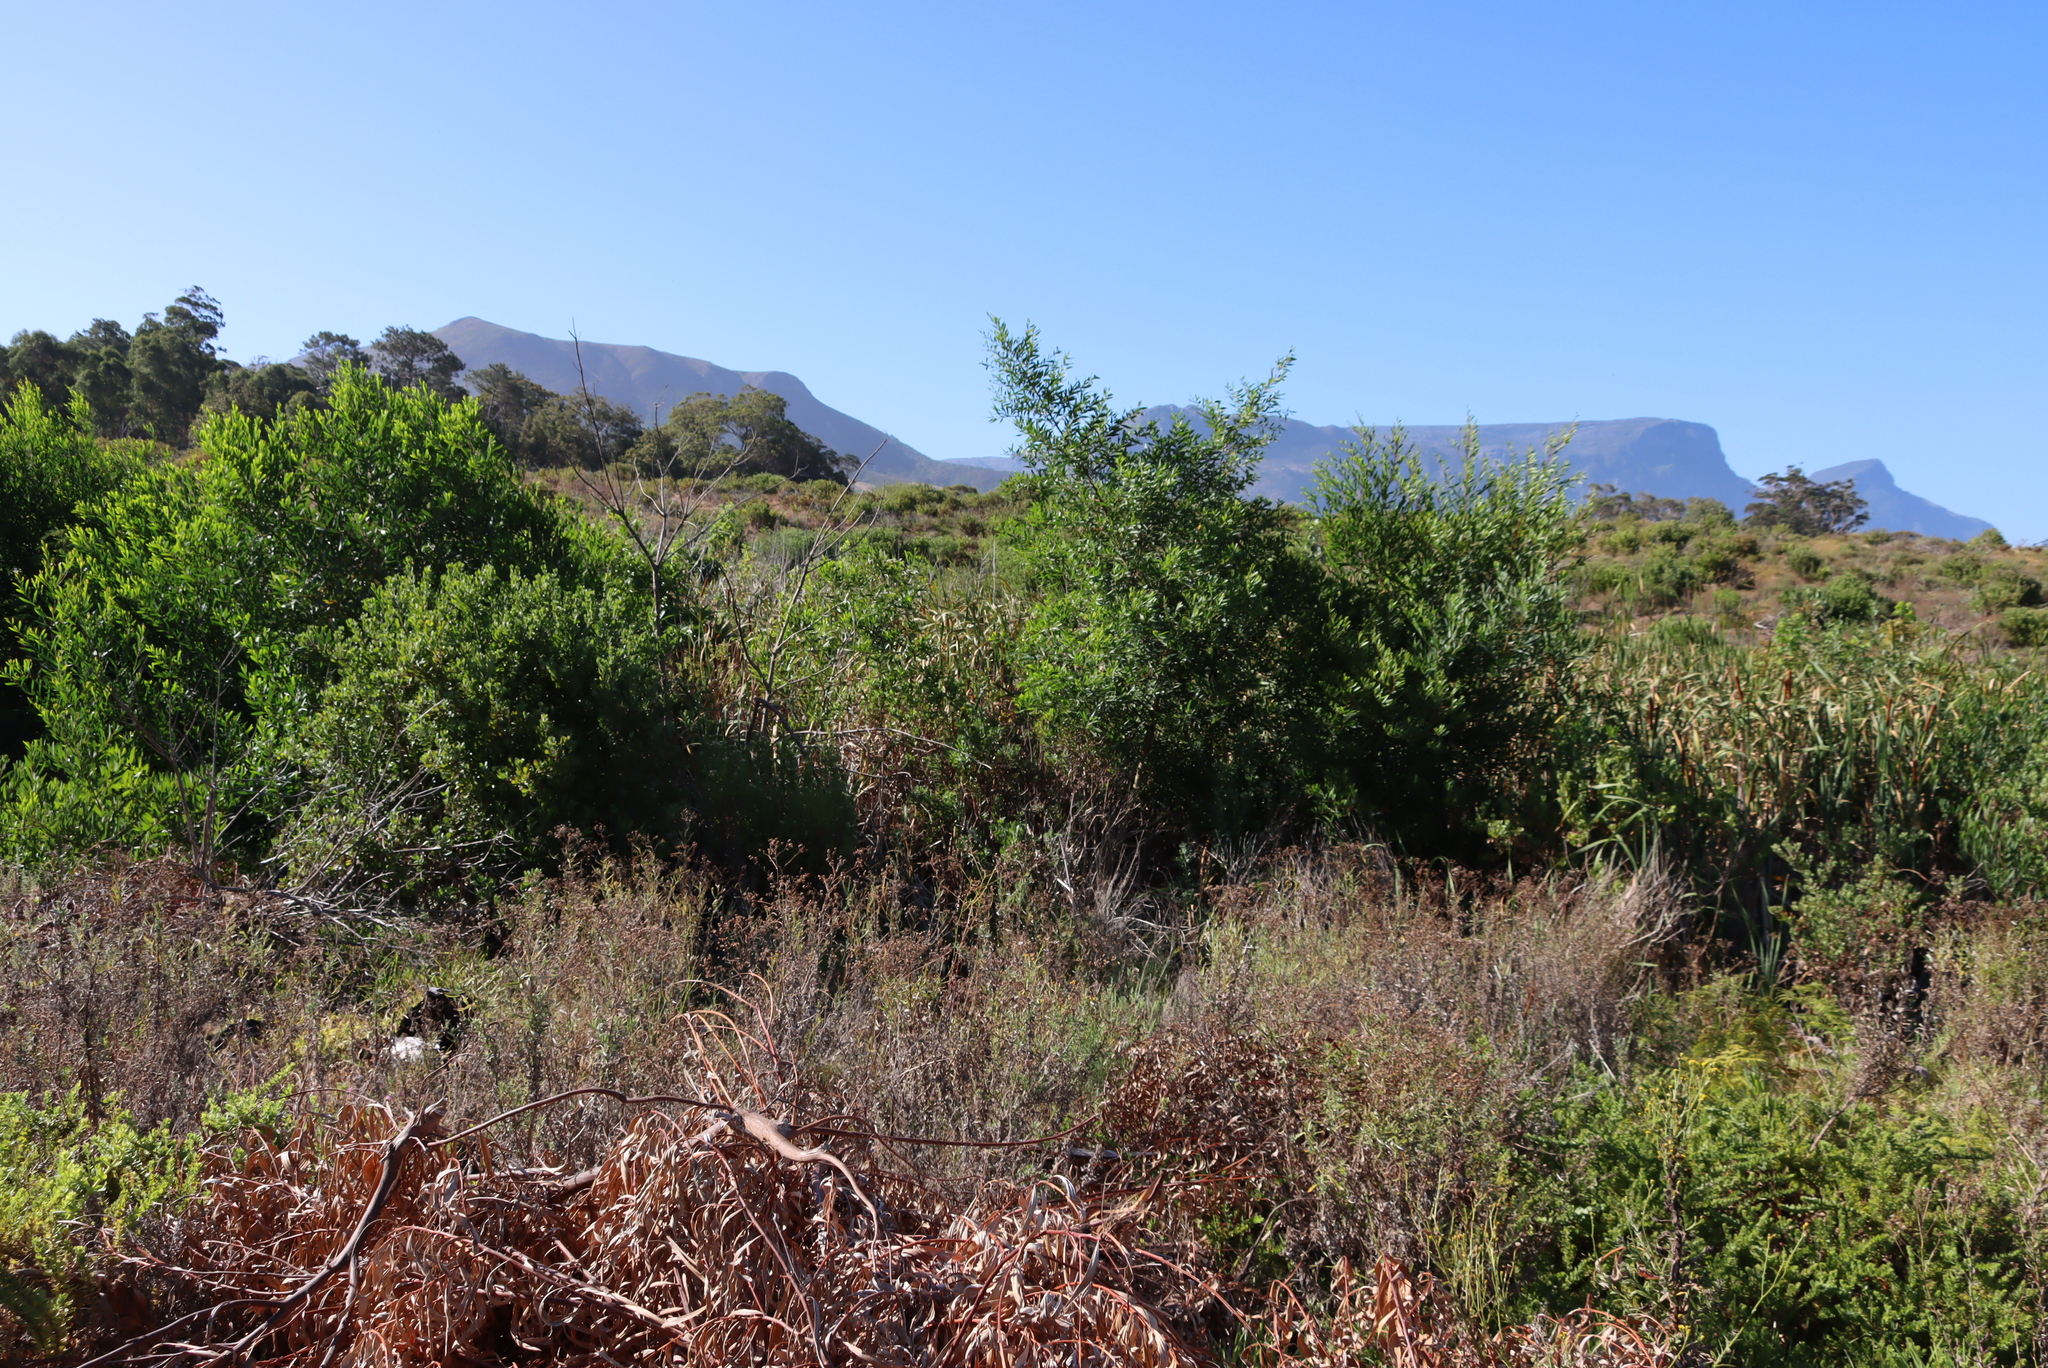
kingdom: Plantae
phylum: Tracheophyta
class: Magnoliopsida
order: Fabales
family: Fabaceae
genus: Acacia
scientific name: Acacia longifolia
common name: Sydney golden wattle
